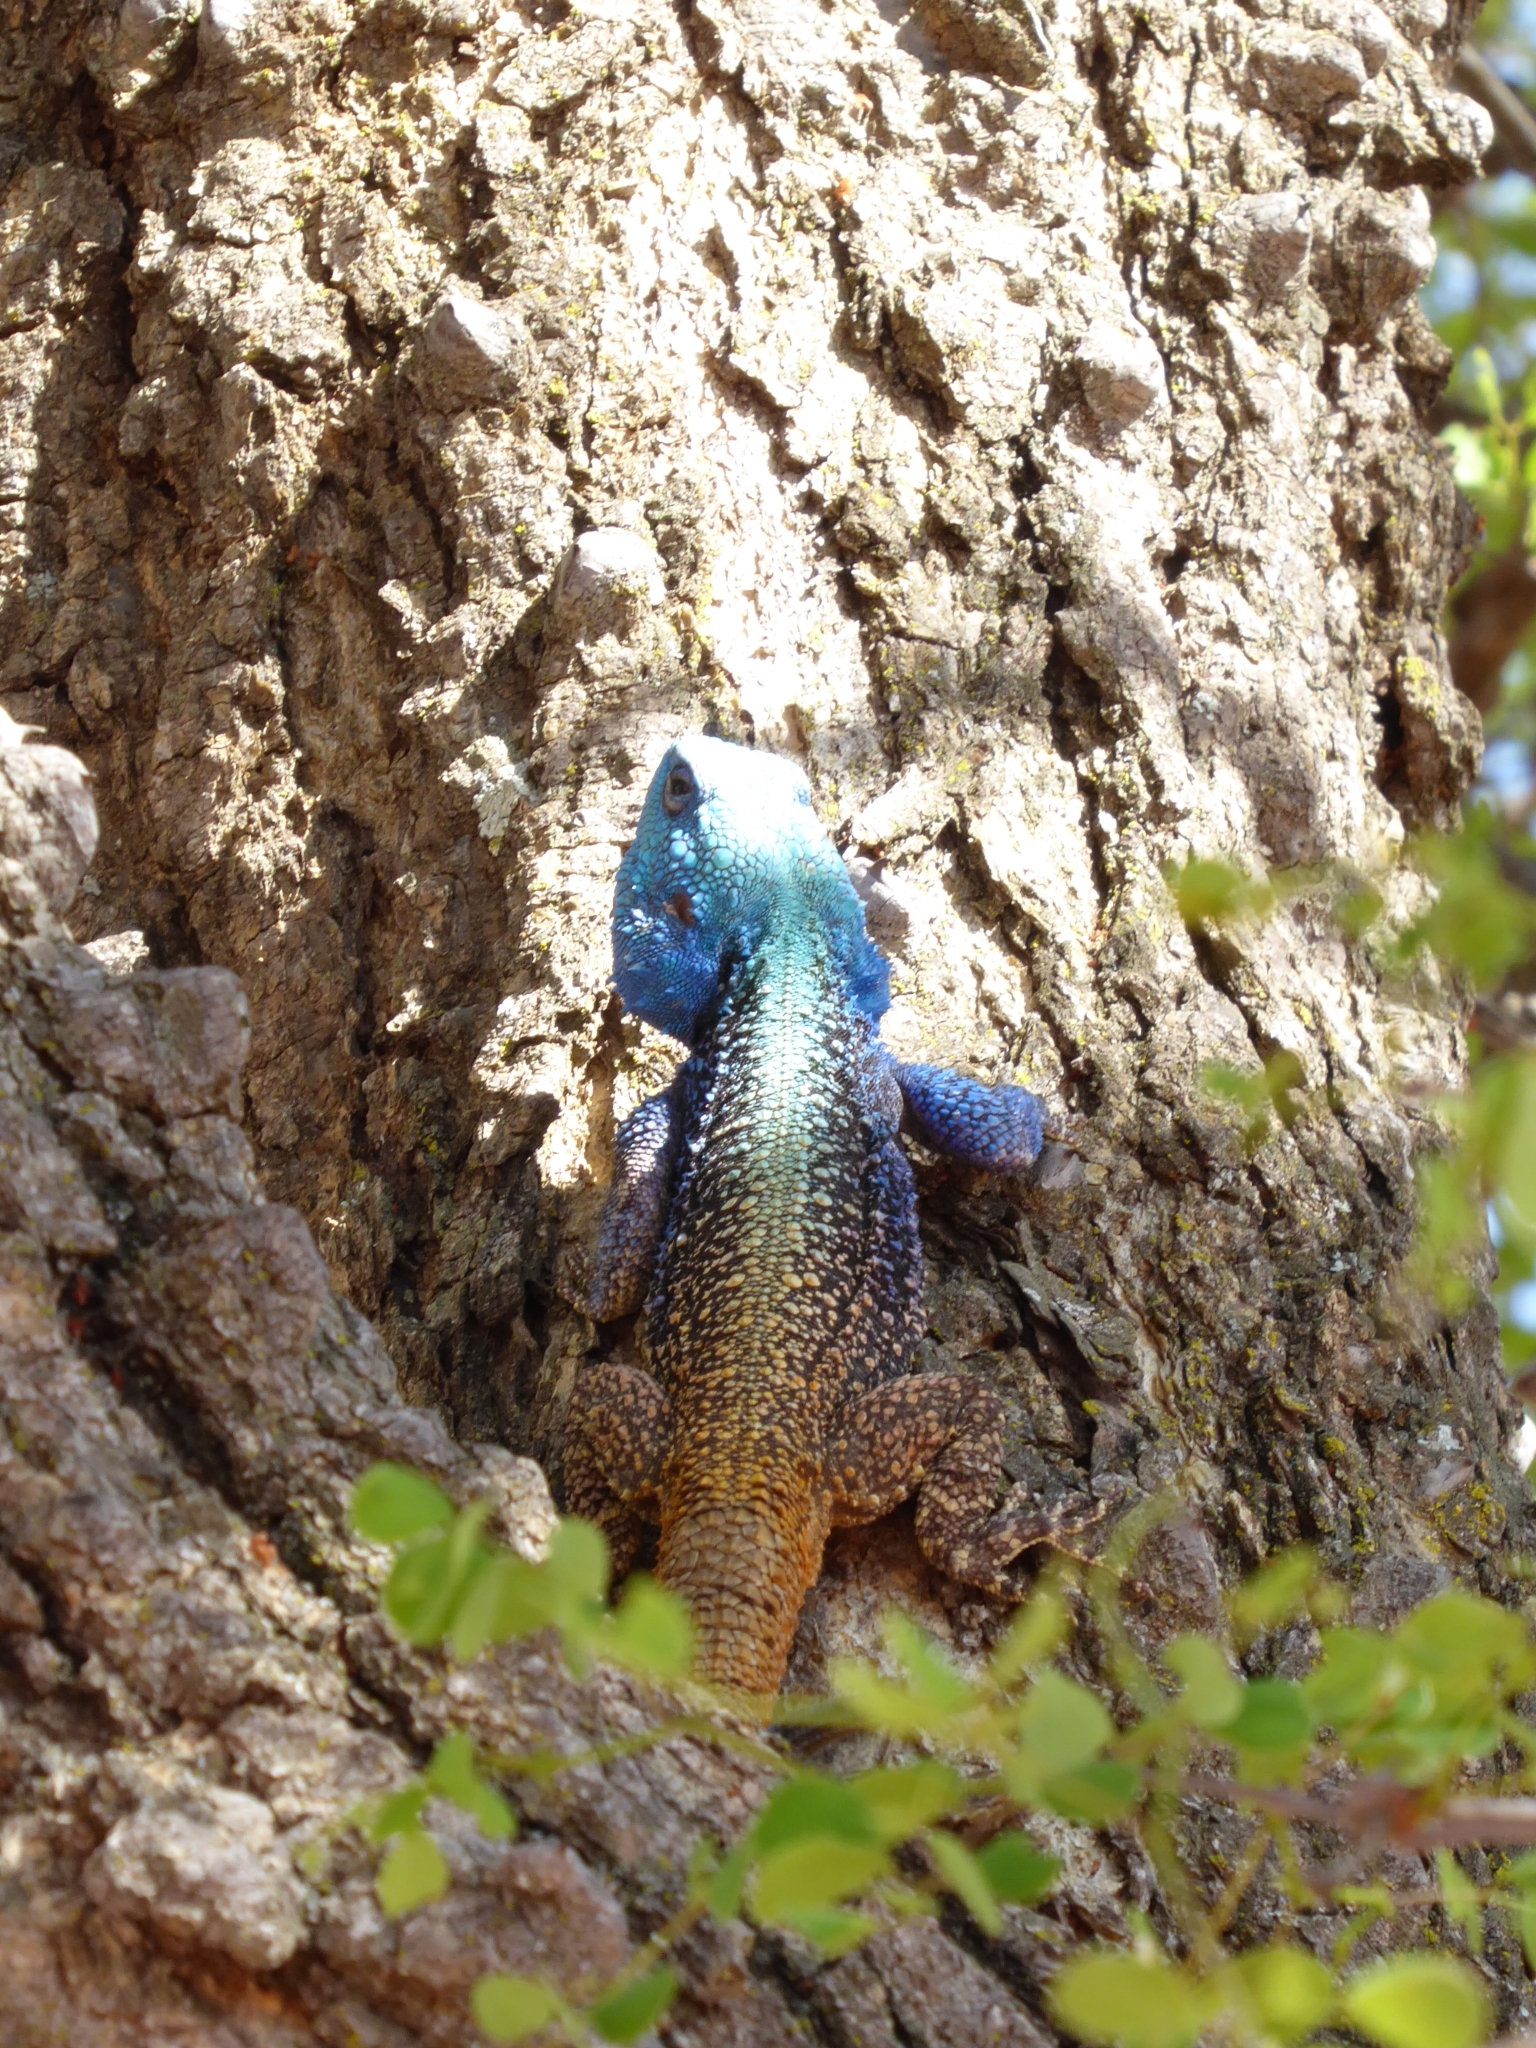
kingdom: Animalia
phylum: Chordata
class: Squamata
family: Agamidae
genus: Acanthocercus
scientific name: Acanthocercus atricollis
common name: Southern tree agama
